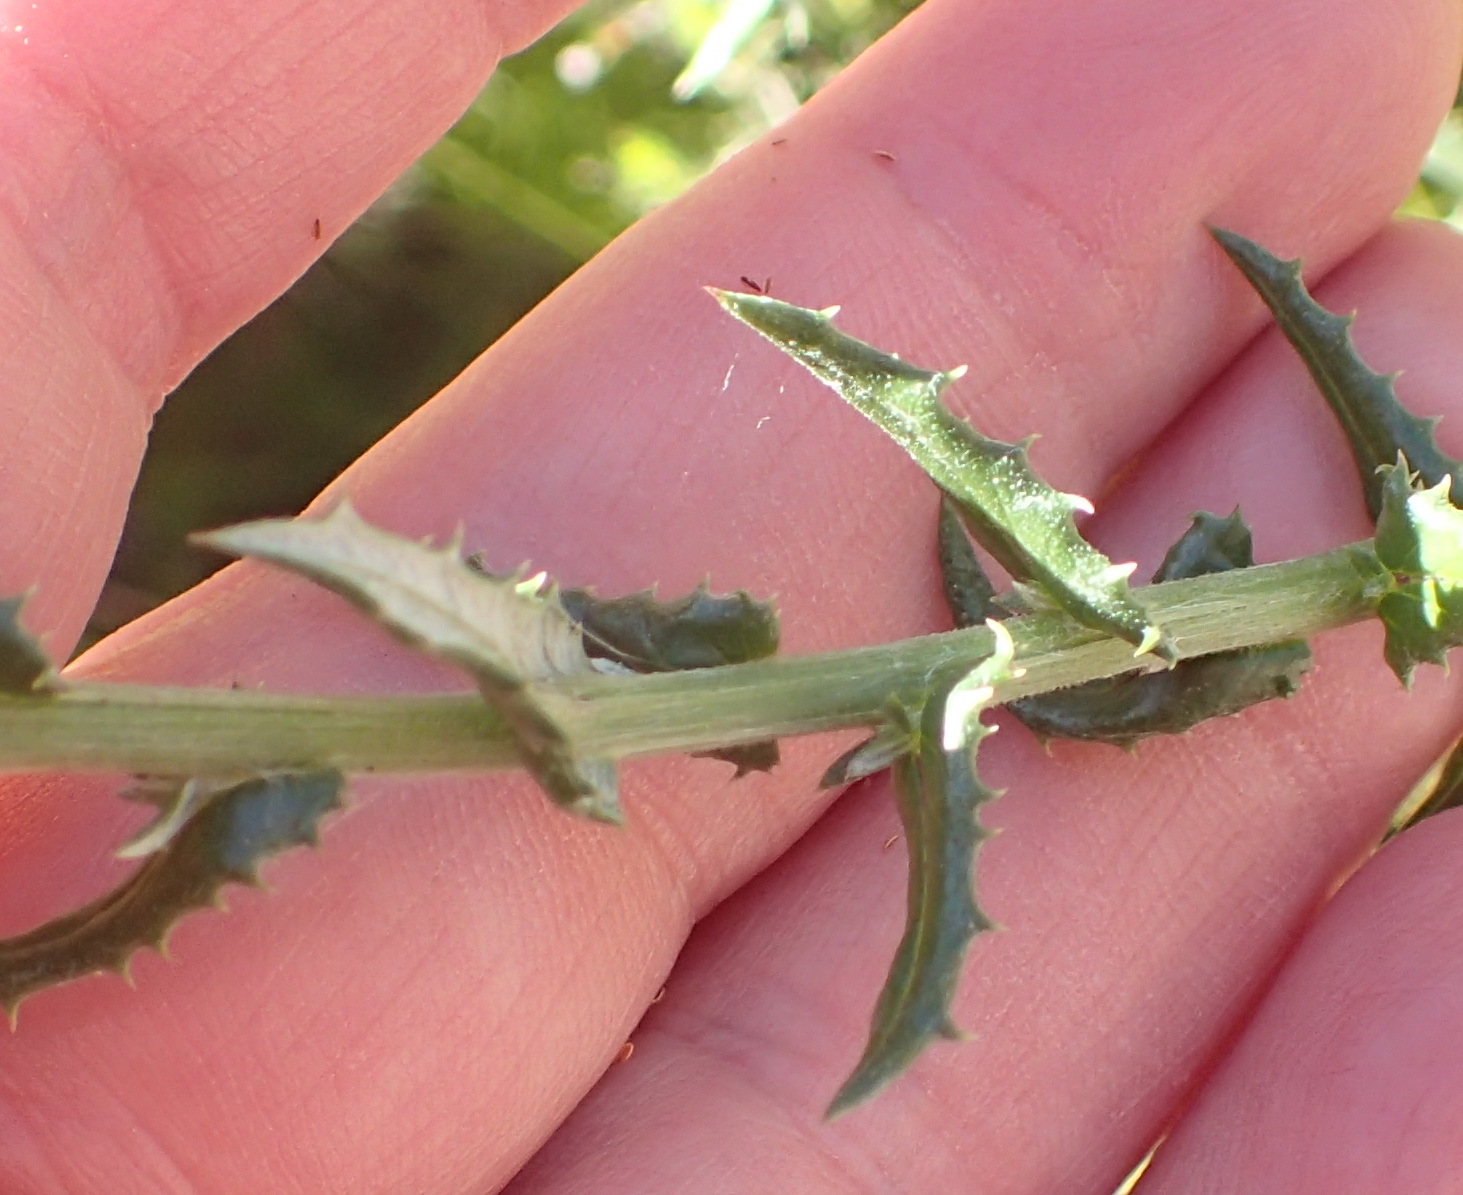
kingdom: Plantae
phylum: Tracheophyta
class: Magnoliopsida
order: Asterales
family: Asteraceae
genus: Senecio
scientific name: Senecio ilicifolius
